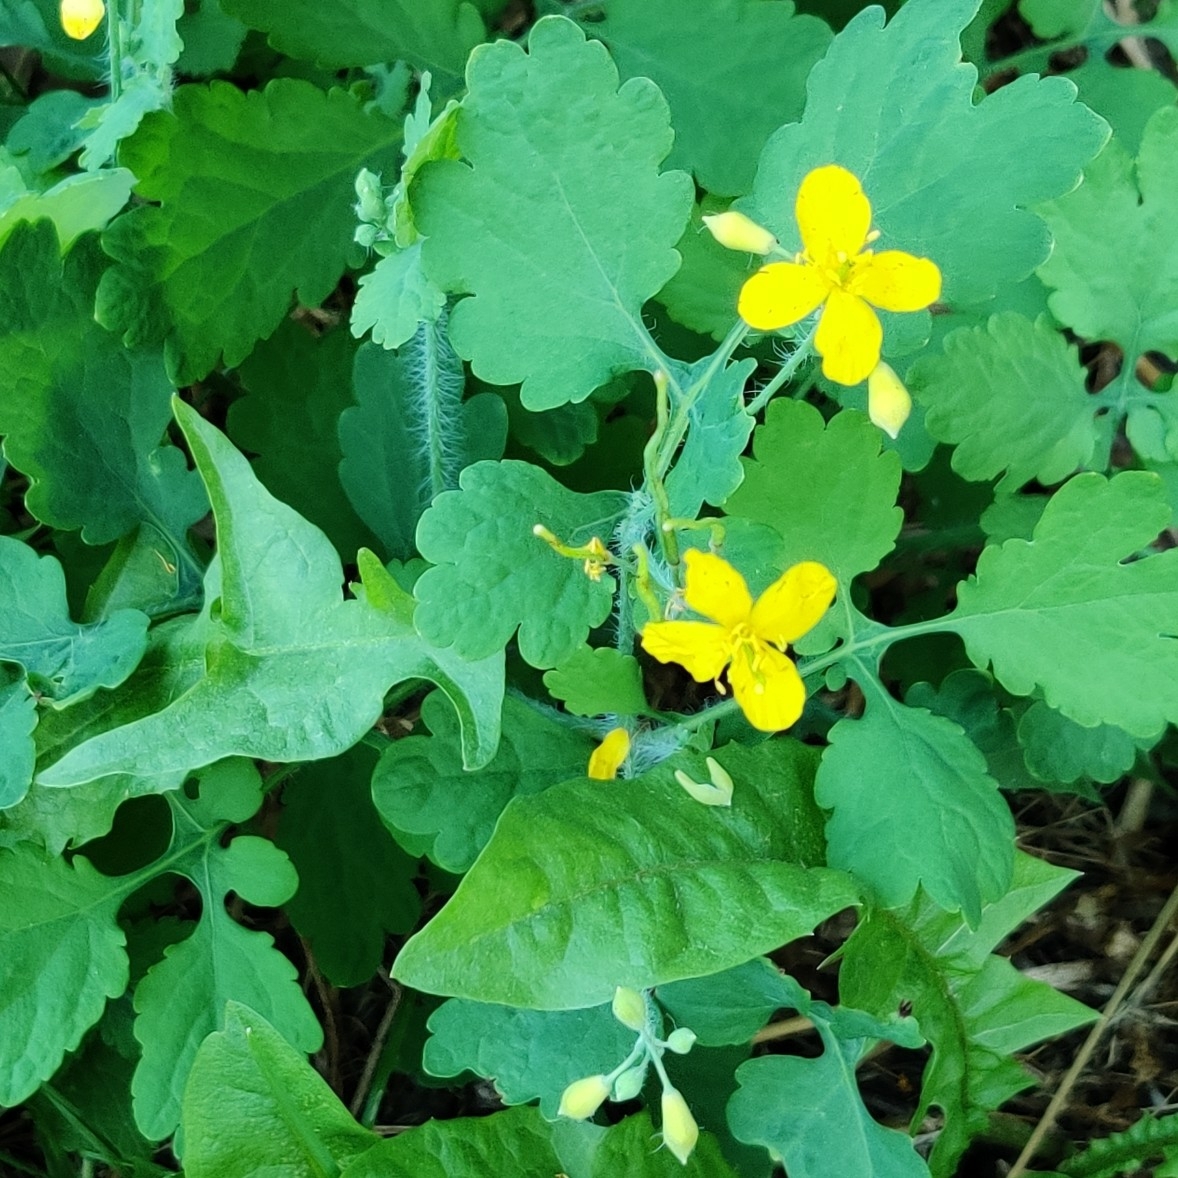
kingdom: Plantae
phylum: Tracheophyta
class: Magnoliopsida
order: Ranunculales
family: Papaveraceae
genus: Chelidonium
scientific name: Chelidonium majus
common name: Greater celandine
